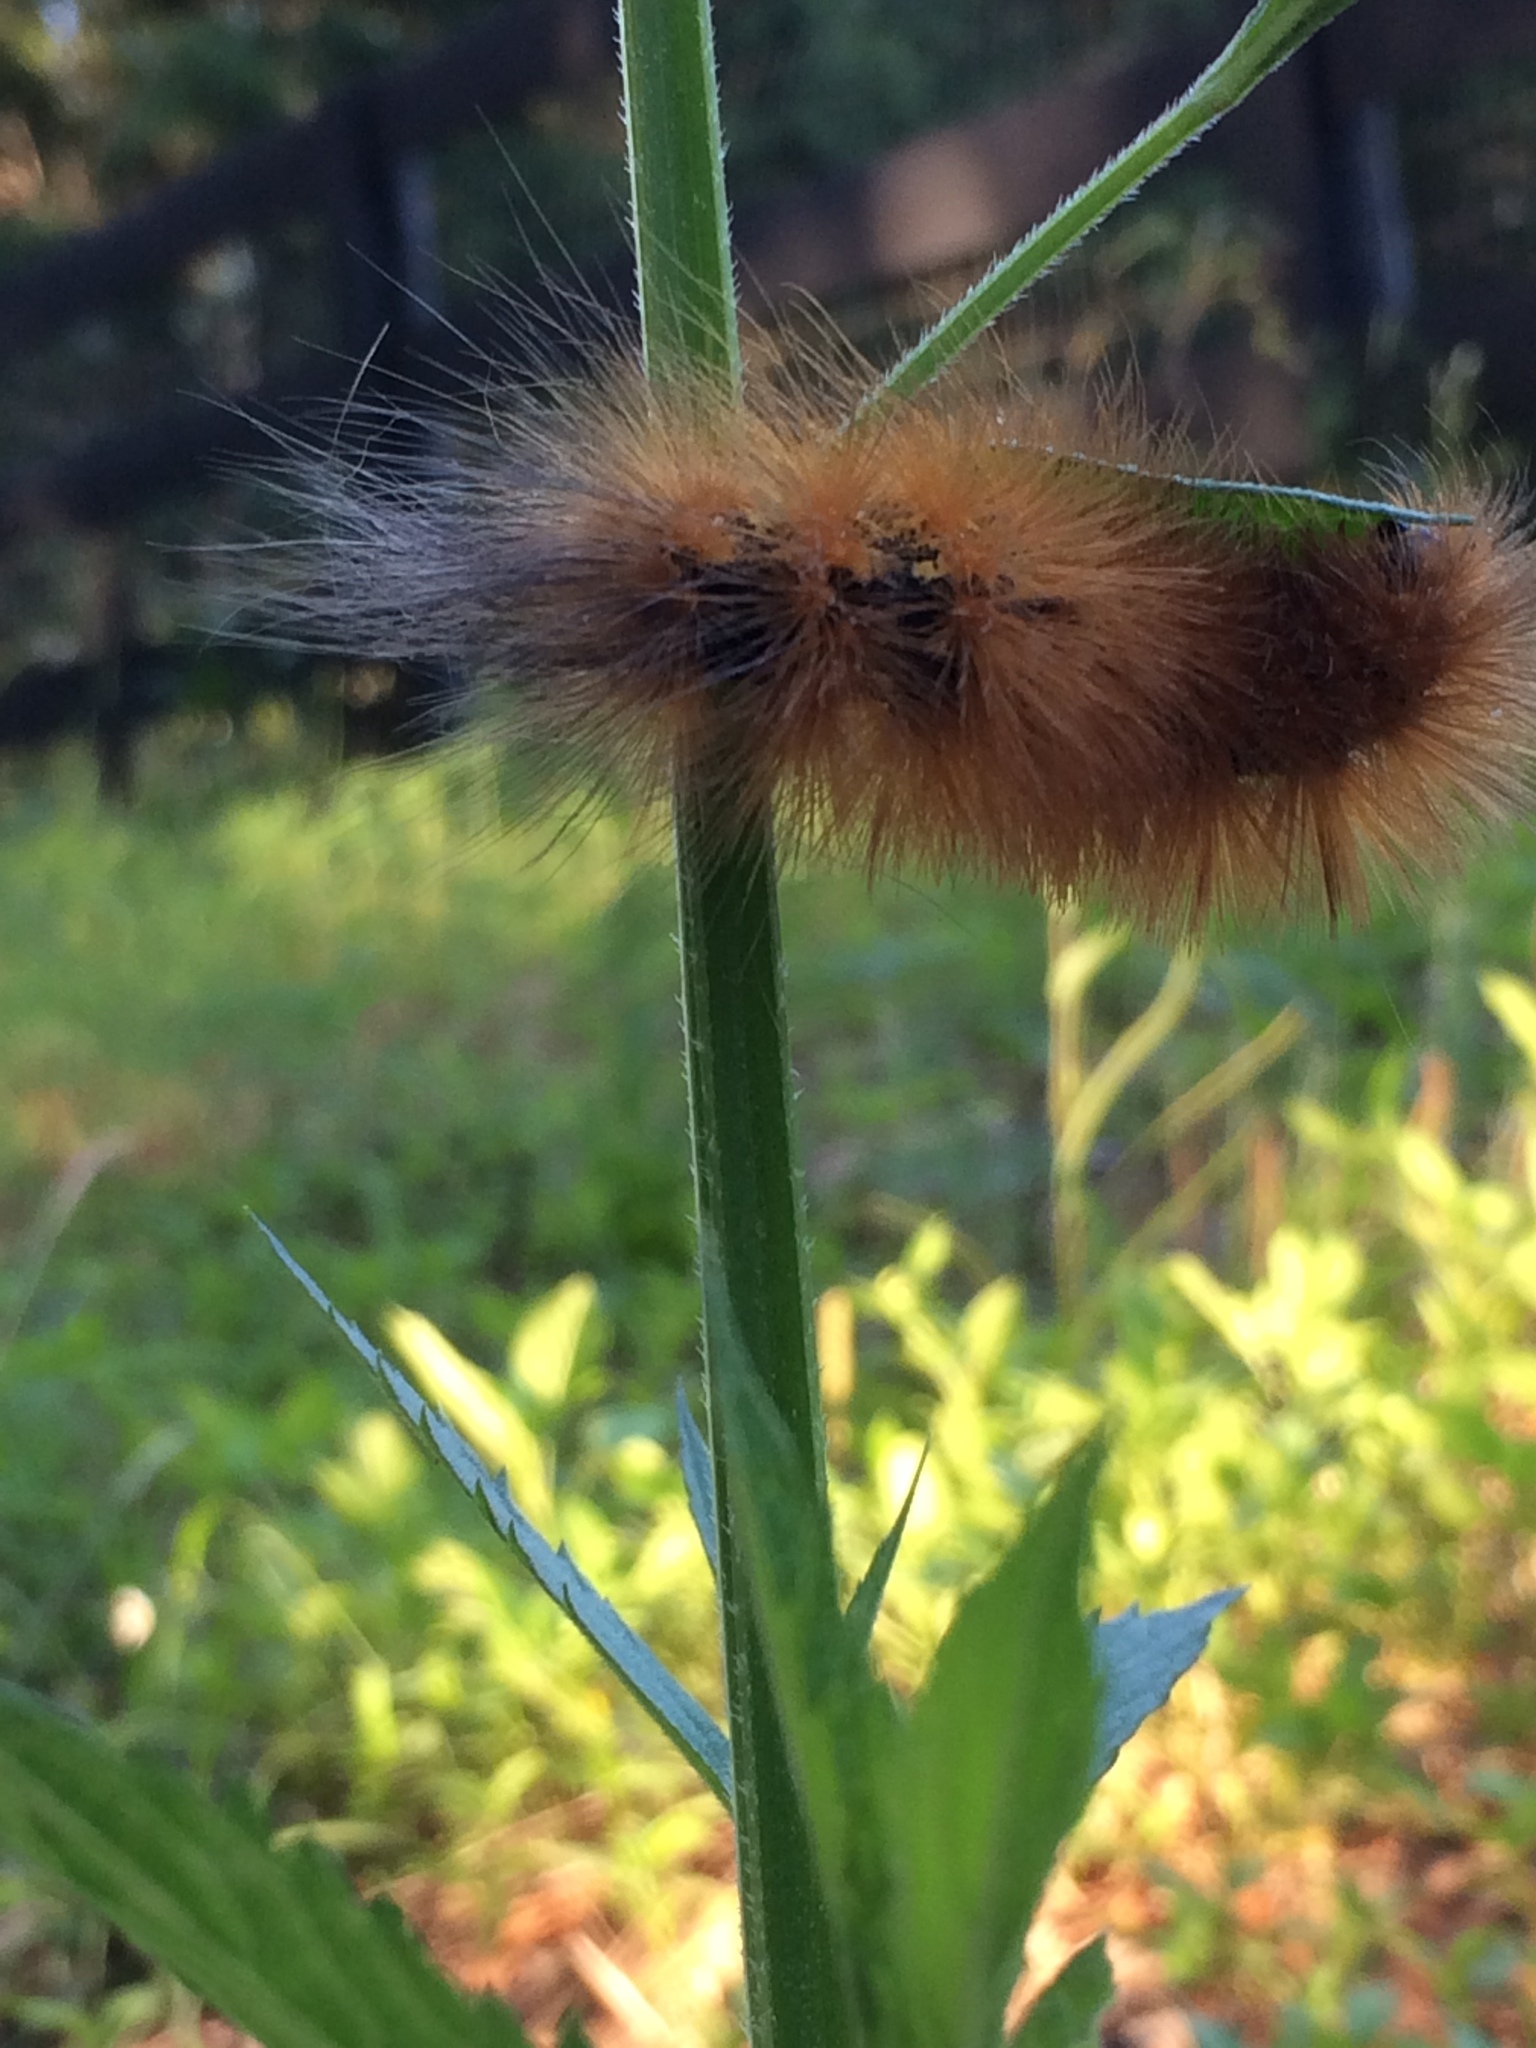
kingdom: Animalia
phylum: Arthropoda
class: Insecta
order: Lepidoptera
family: Erebidae
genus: Estigmene
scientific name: Estigmene acrea
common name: Salt marsh moth
